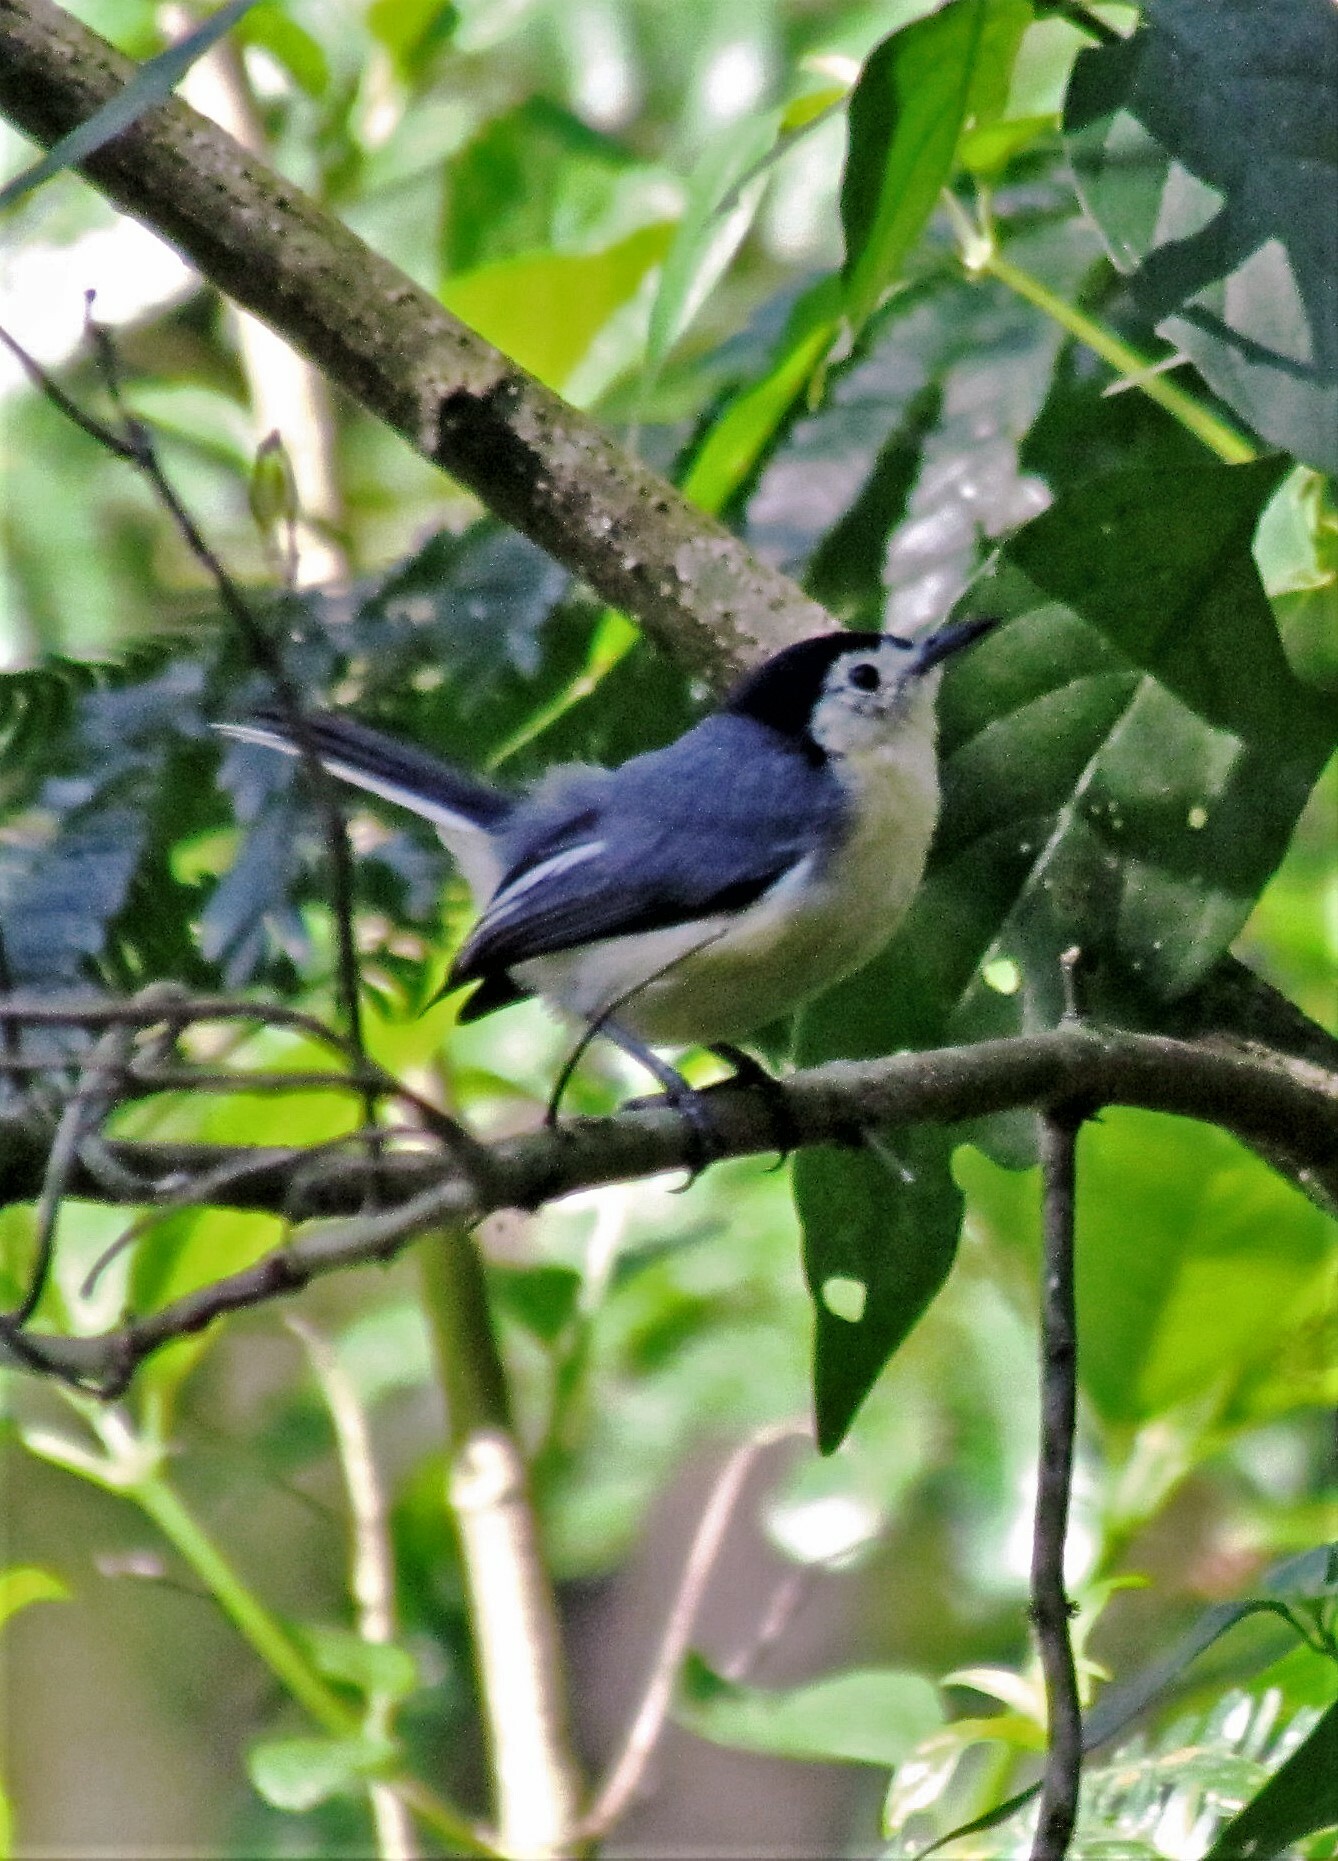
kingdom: Animalia
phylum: Chordata
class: Aves
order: Passeriformes
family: Polioptilidae
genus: Polioptila
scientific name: Polioptila lactea
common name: Creamy-bellied gnatcatcher
